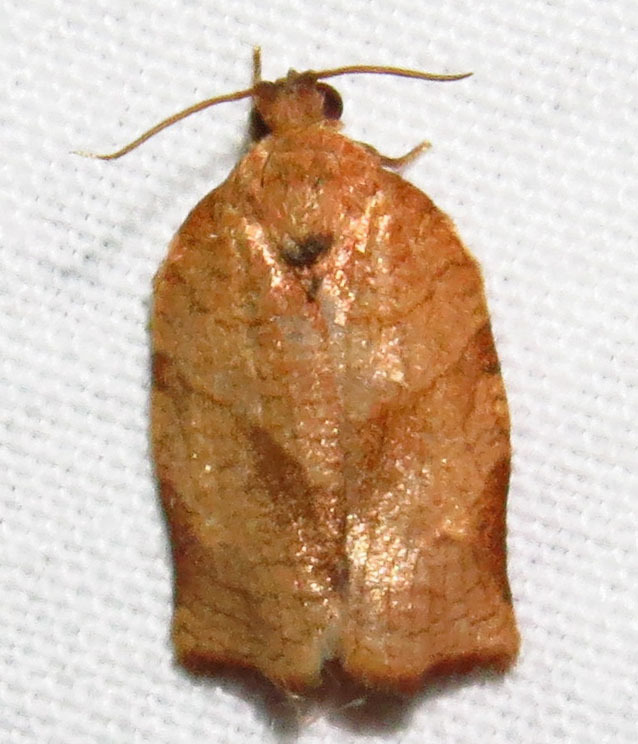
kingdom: Animalia
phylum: Arthropoda
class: Insecta
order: Lepidoptera
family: Tortricidae
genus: Choristoneura
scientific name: Choristoneura rosaceana
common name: Oblique-banded leafroller moth
